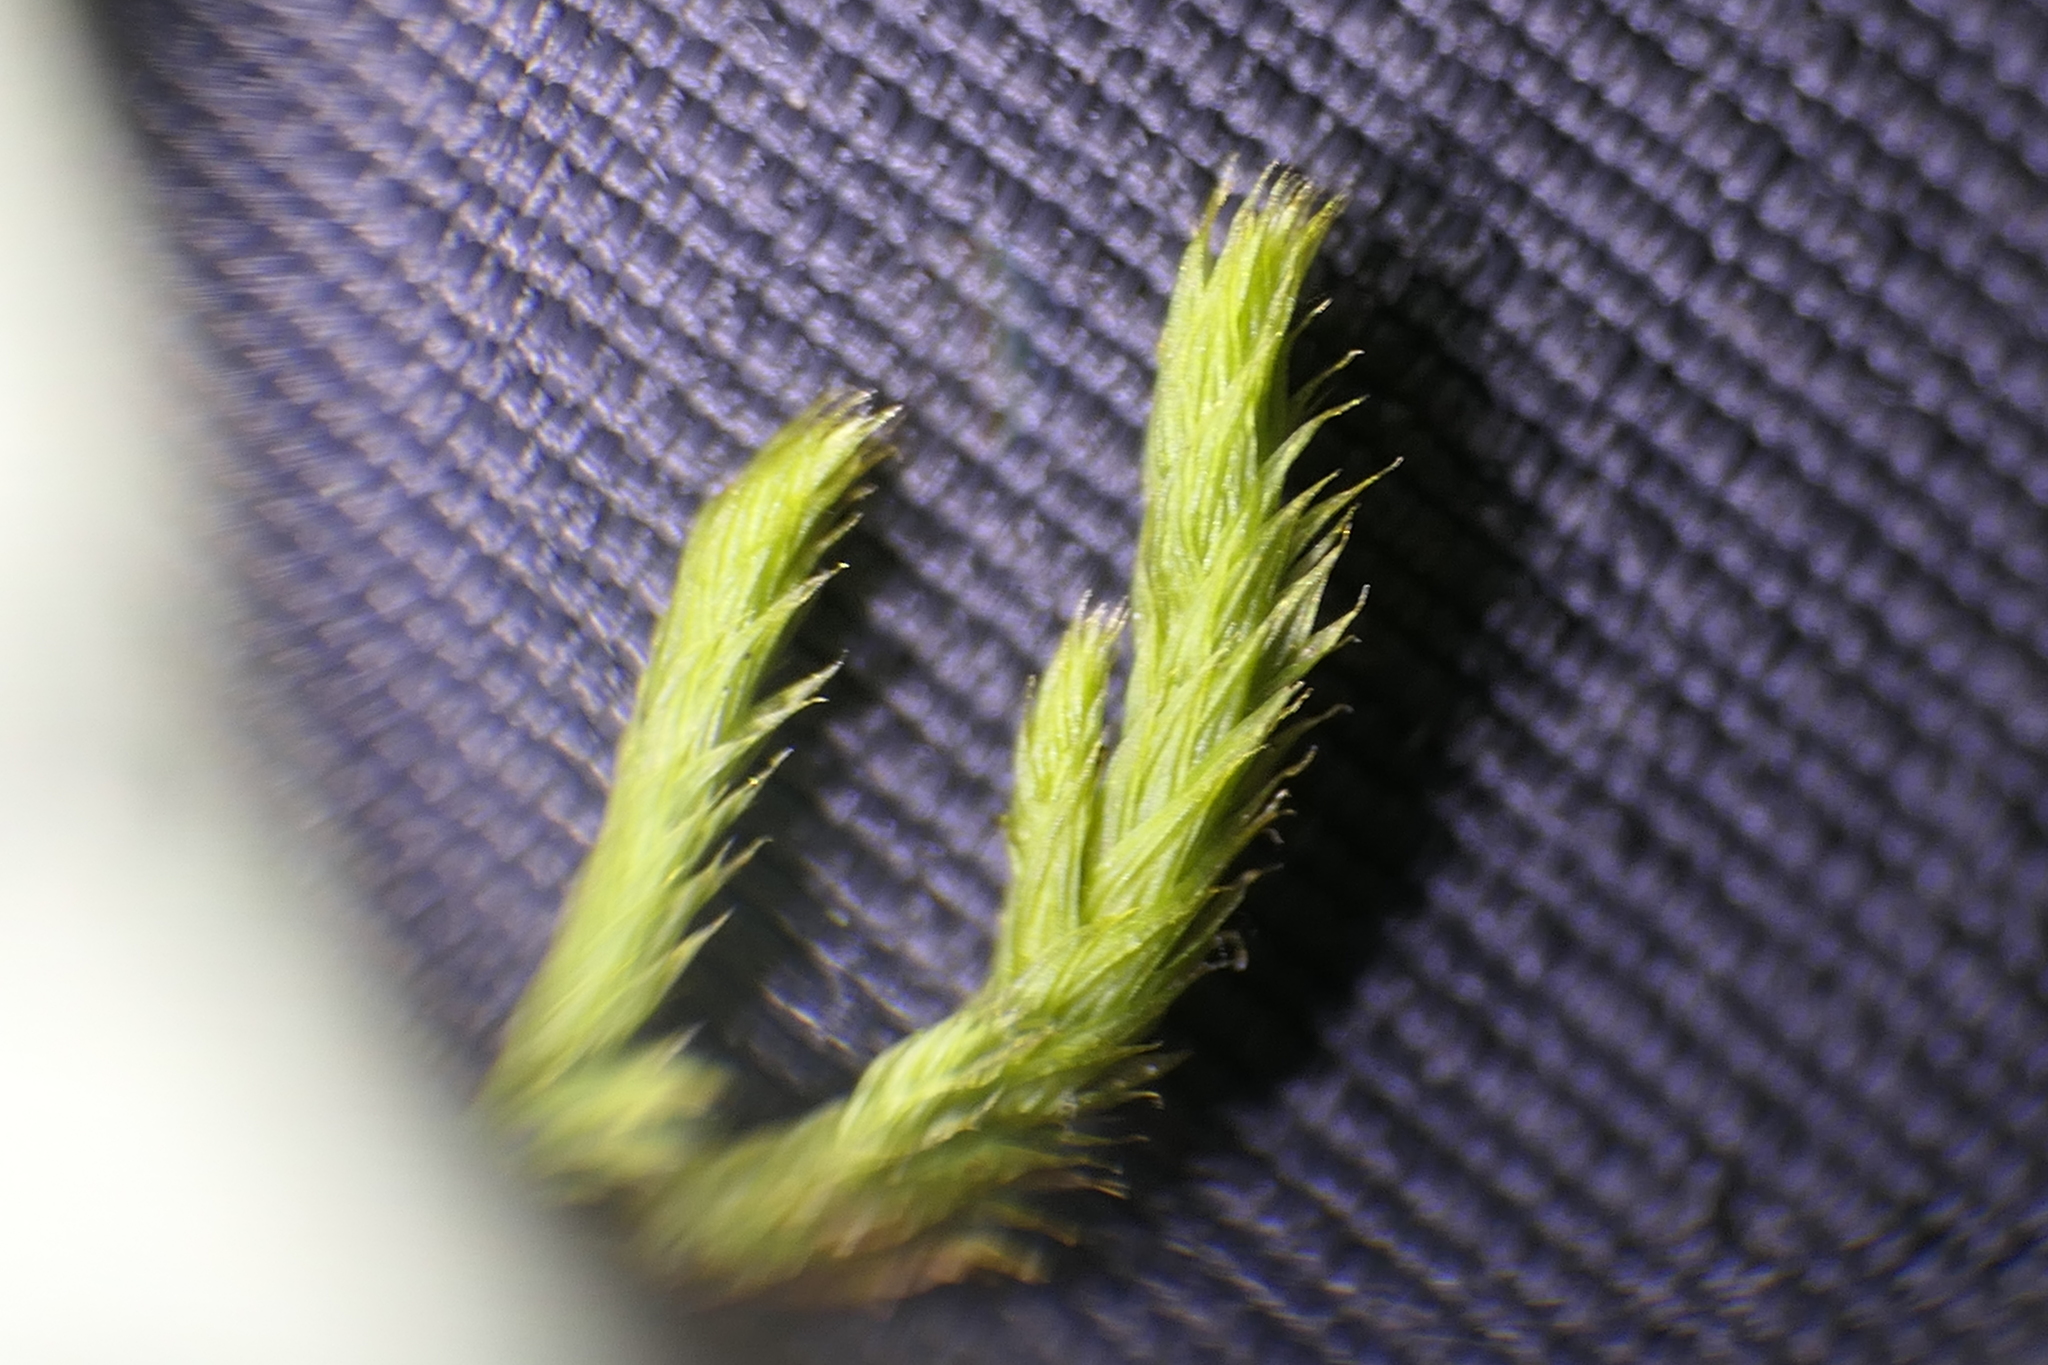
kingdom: Plantae
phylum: Bryophyta
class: Bryopsida
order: Hypnales
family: Leucodontaceae
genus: Leucodon
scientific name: Leucodon sciuroides
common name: Squirrel-tail moss
